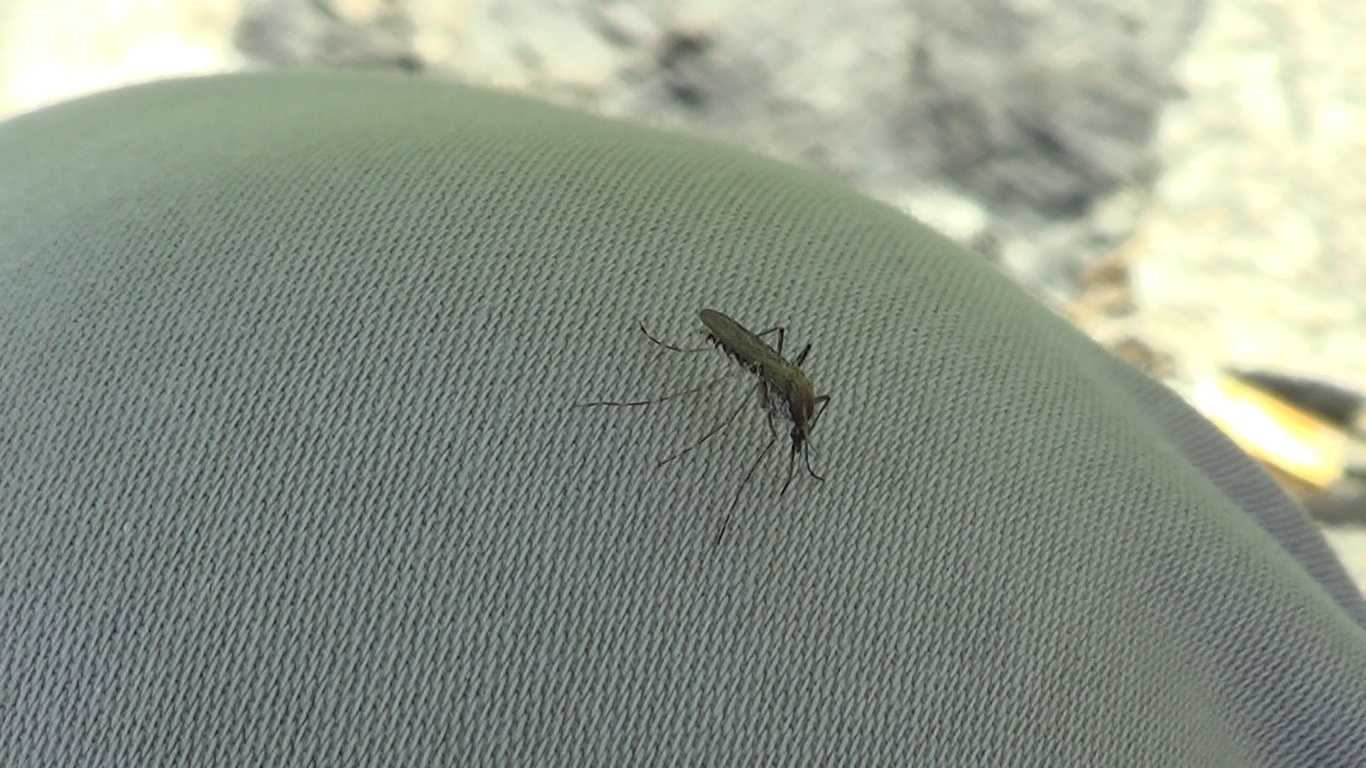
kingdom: Animalia
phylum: Arthropoda
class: Insecta
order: Diptera
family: Culicidae
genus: Aedes
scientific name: Aedes caspius
